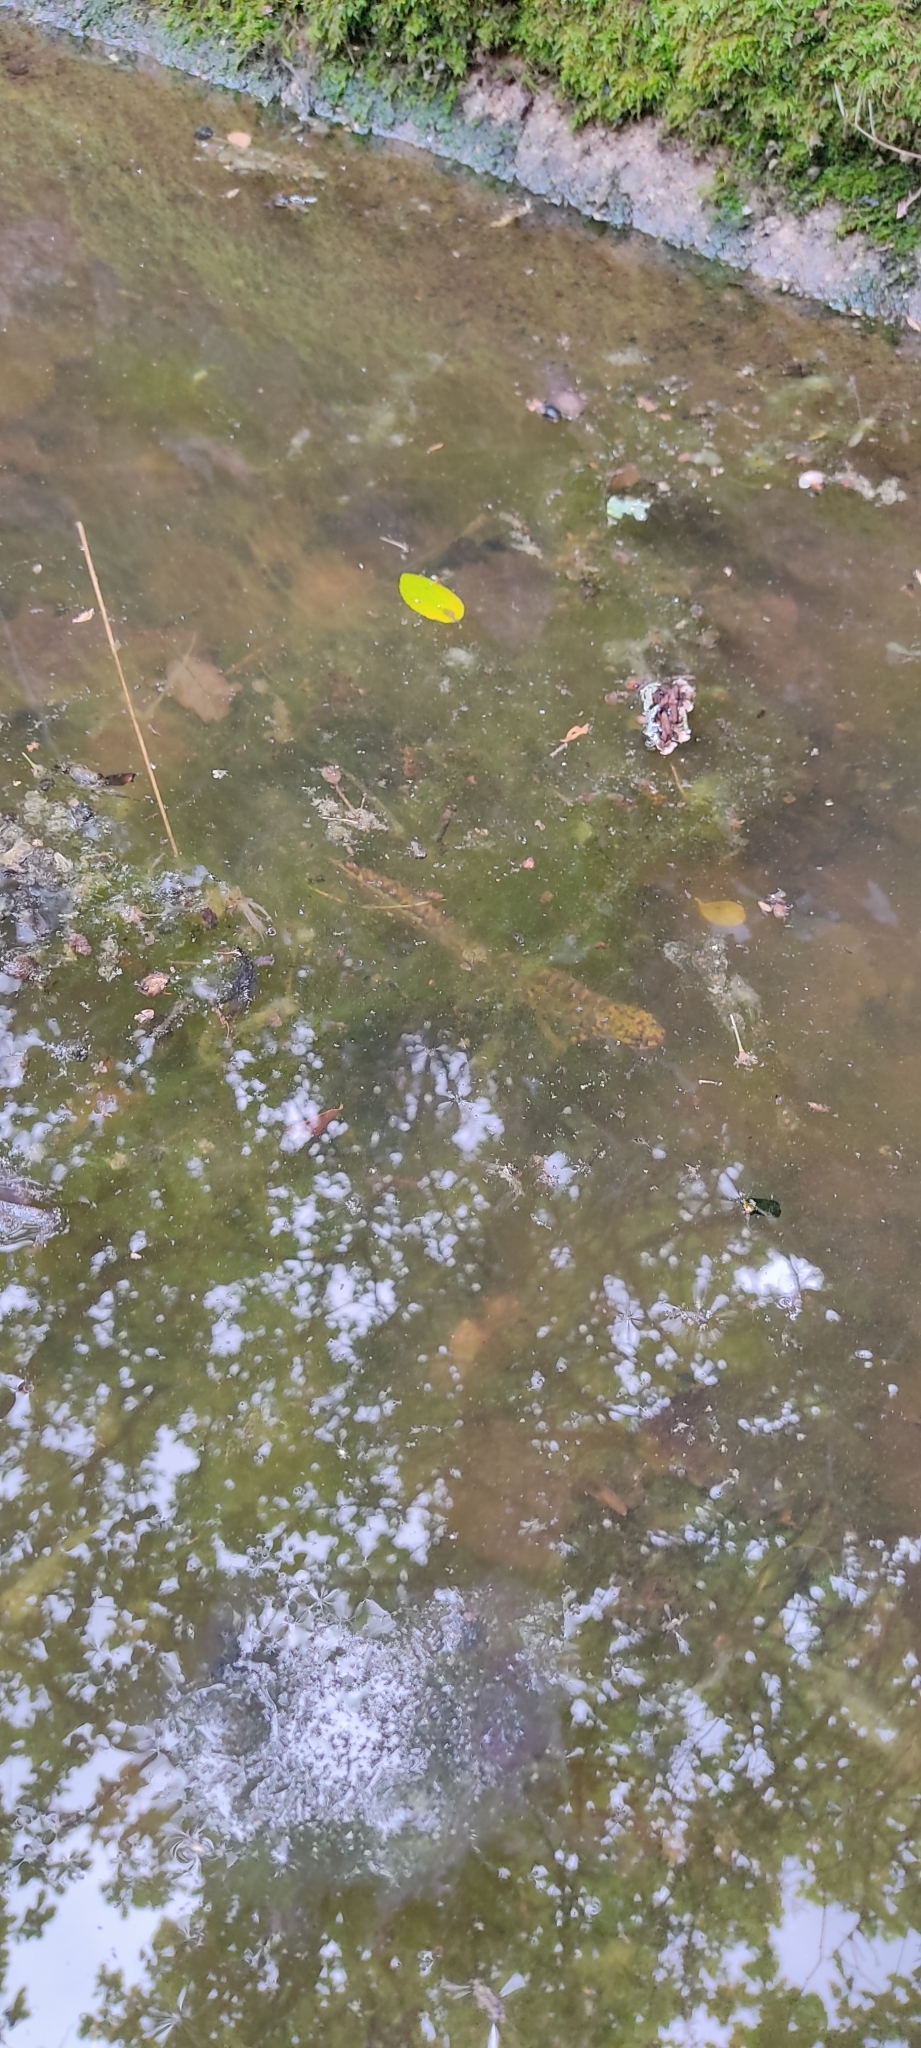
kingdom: Animalia
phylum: Chordata
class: Amphibia
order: Caudata
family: Salamandridae
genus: Triturus
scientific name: Triturus marmoratus
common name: Marbled newt
